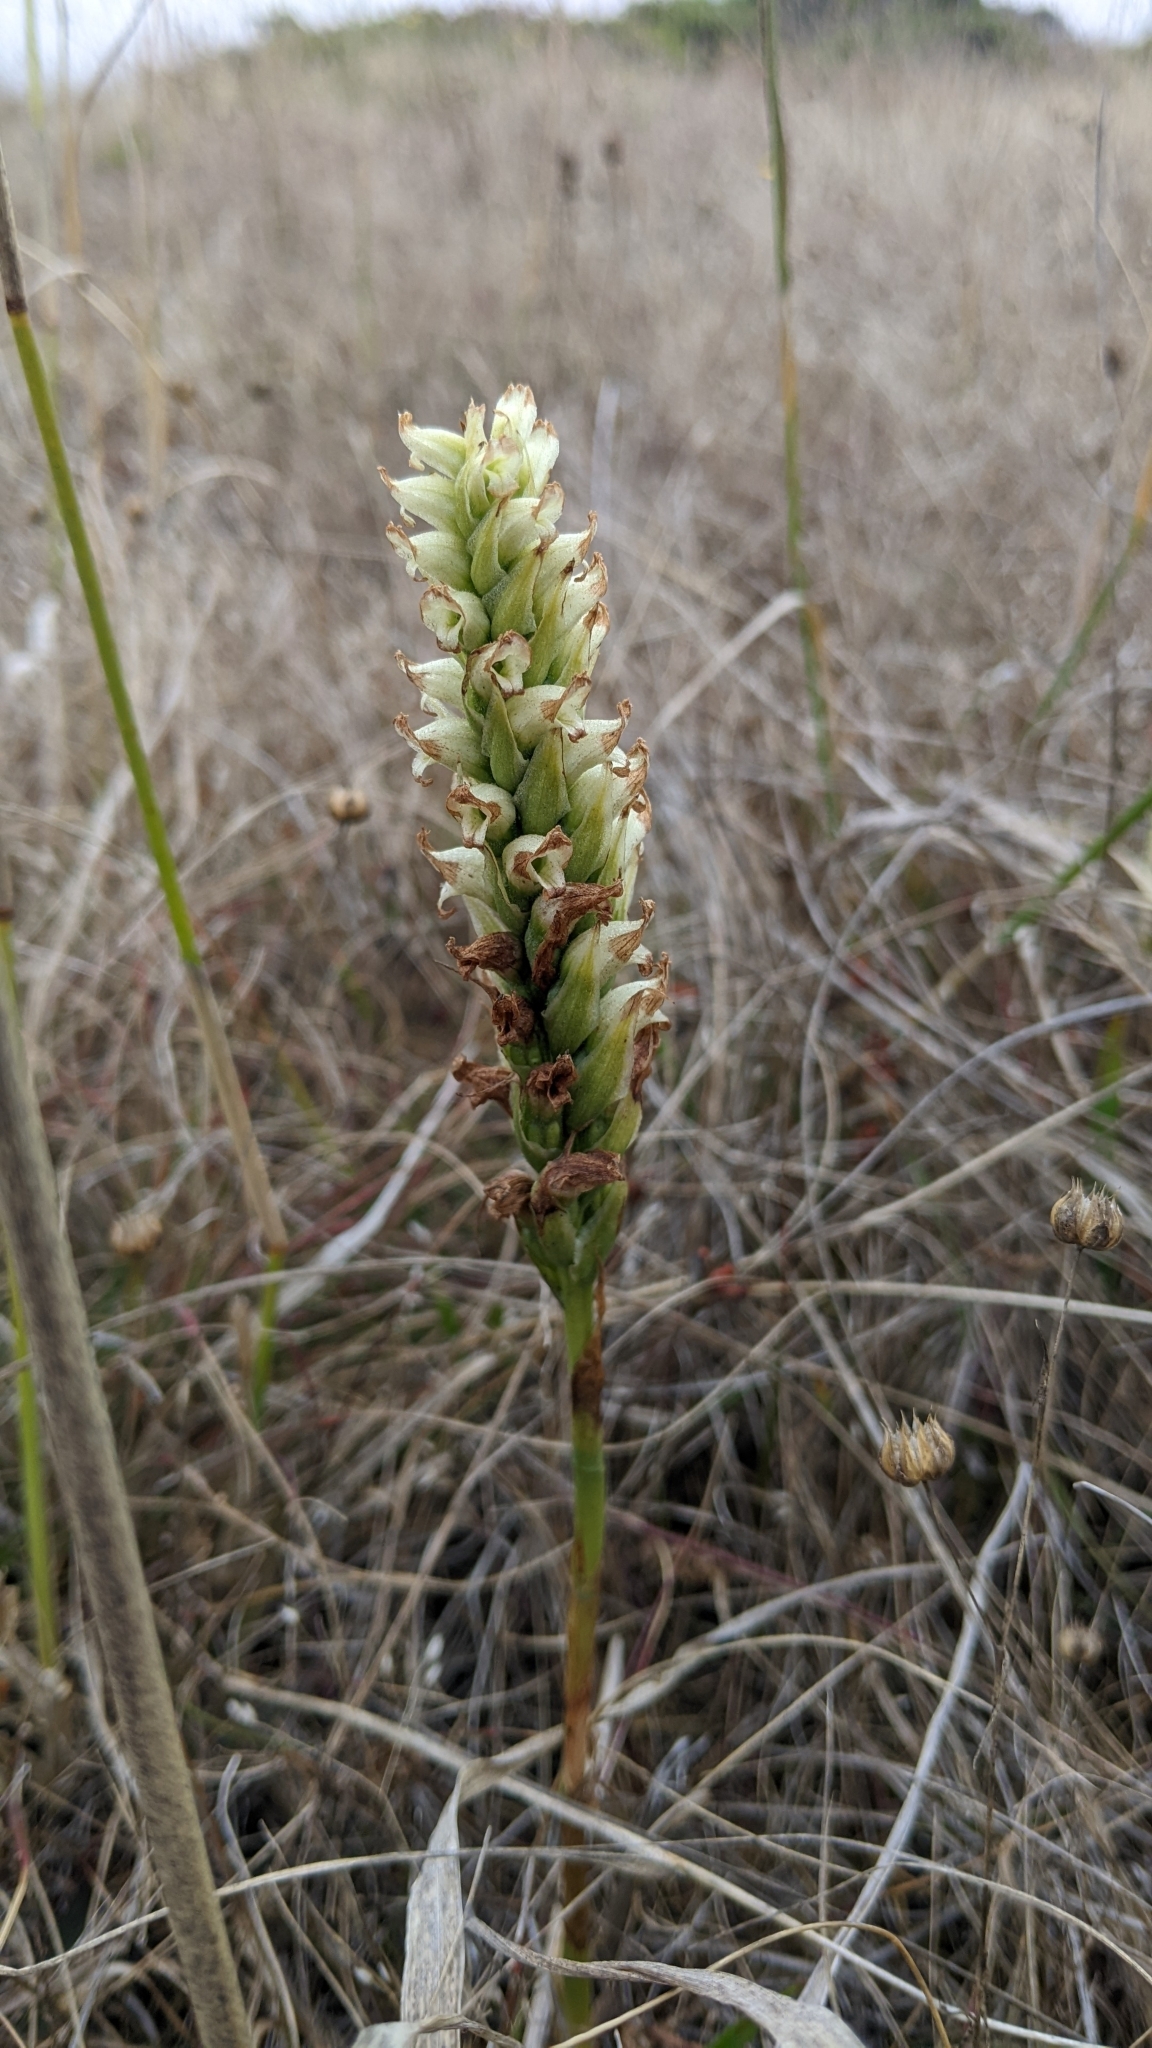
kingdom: Plantae
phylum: Tracheophyta
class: Liliopsida
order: Asparagales
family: Orchidaceae
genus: Spiranthes
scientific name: Spiranthes romanzoffiana
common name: Irish lady's-tresses
